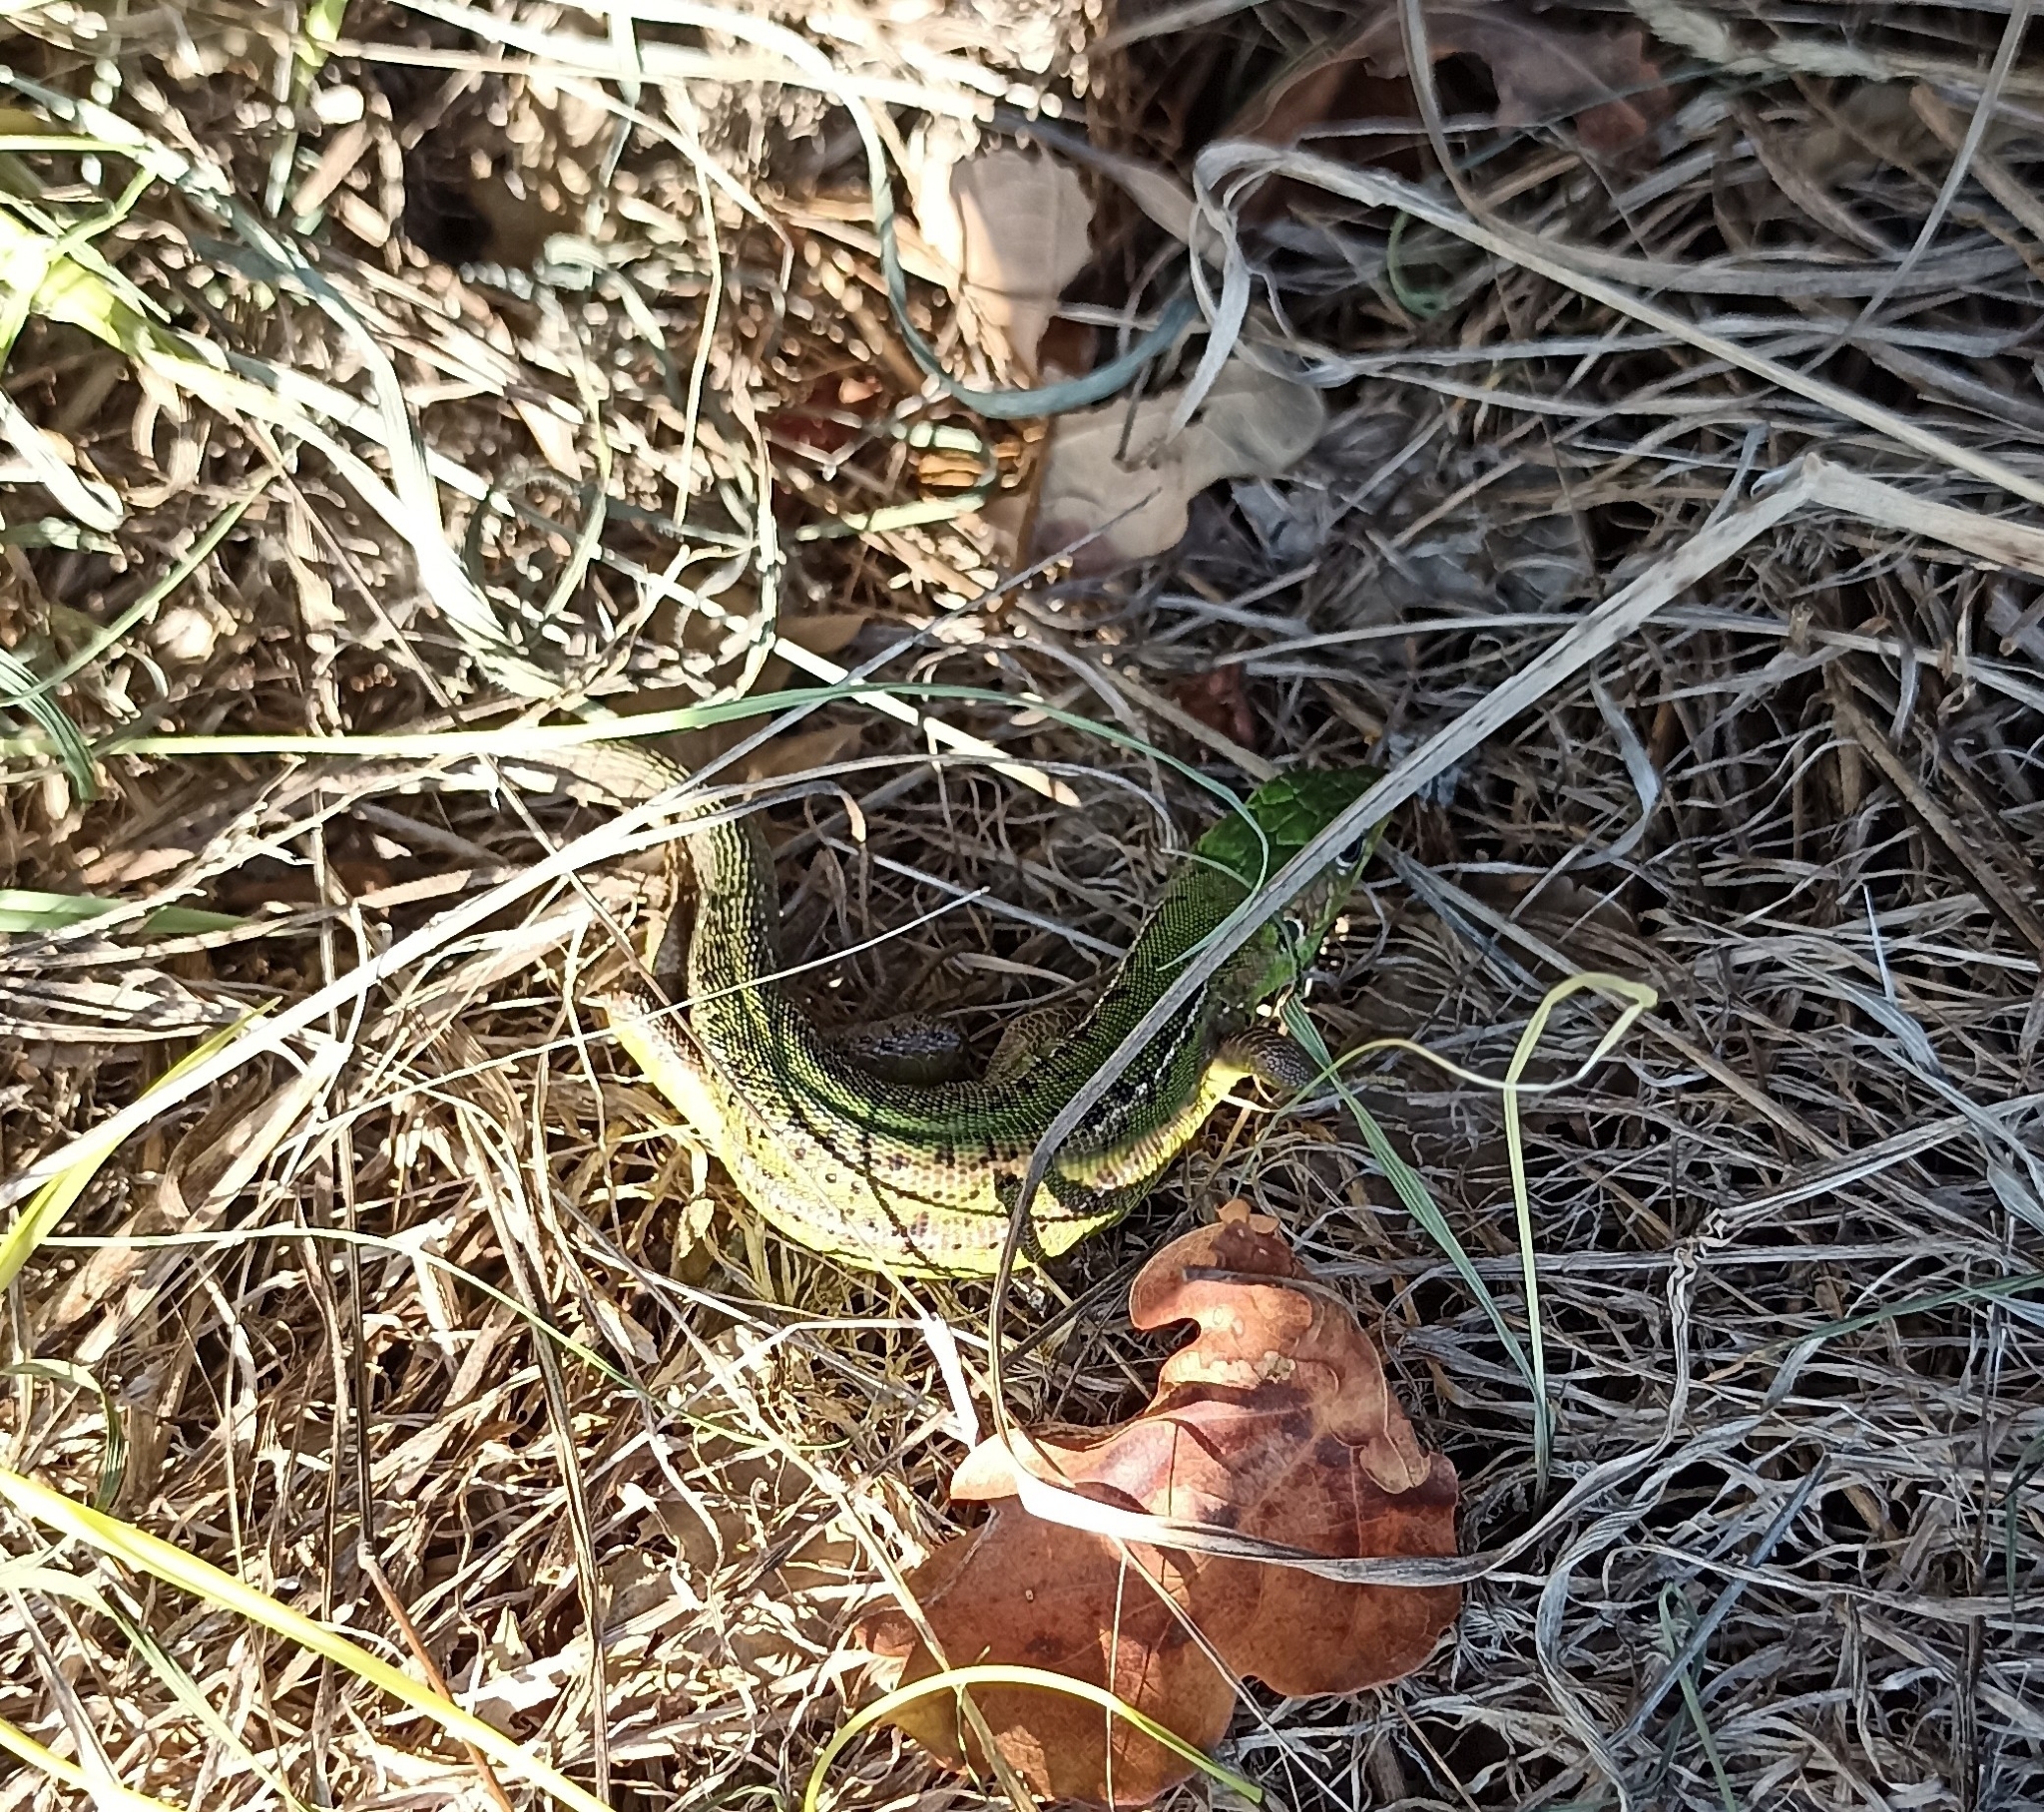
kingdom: Animalia
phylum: Chordata
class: Squamata
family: Lacertidae
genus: Lacerta
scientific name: Lacerta bilineata
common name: Western green lizard
